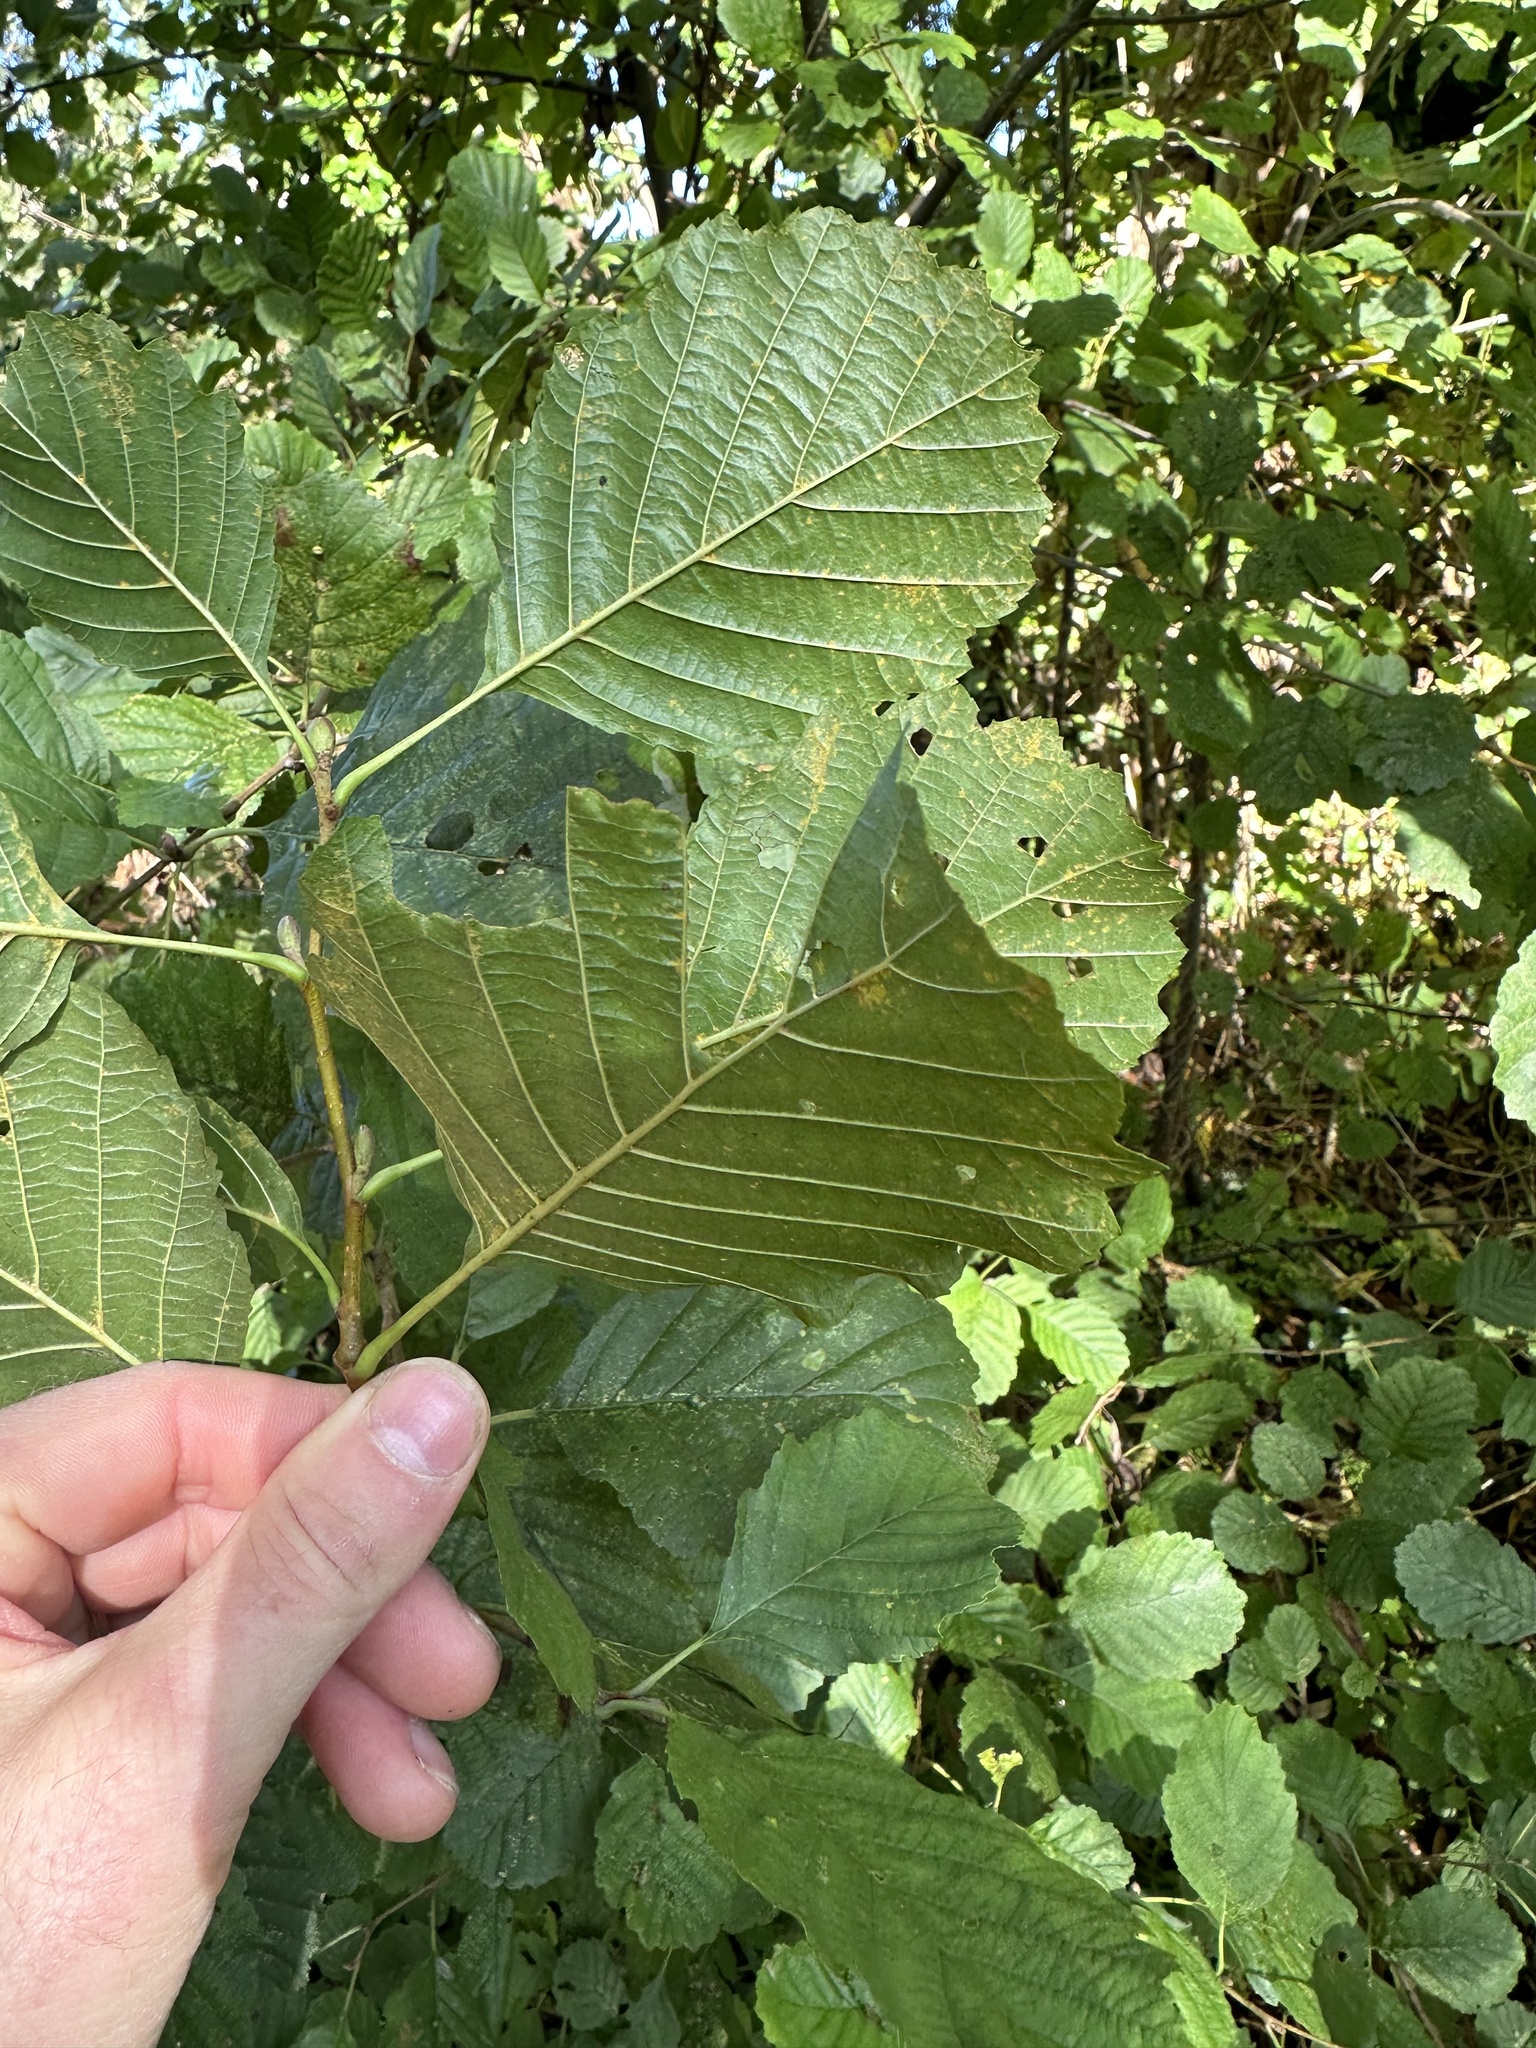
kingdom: Plantae
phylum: Tracheophyta
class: Magnoliopsida
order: Fagales
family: Betulaceae
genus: Alnus
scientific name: Alnus glutinosa
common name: Black alder
